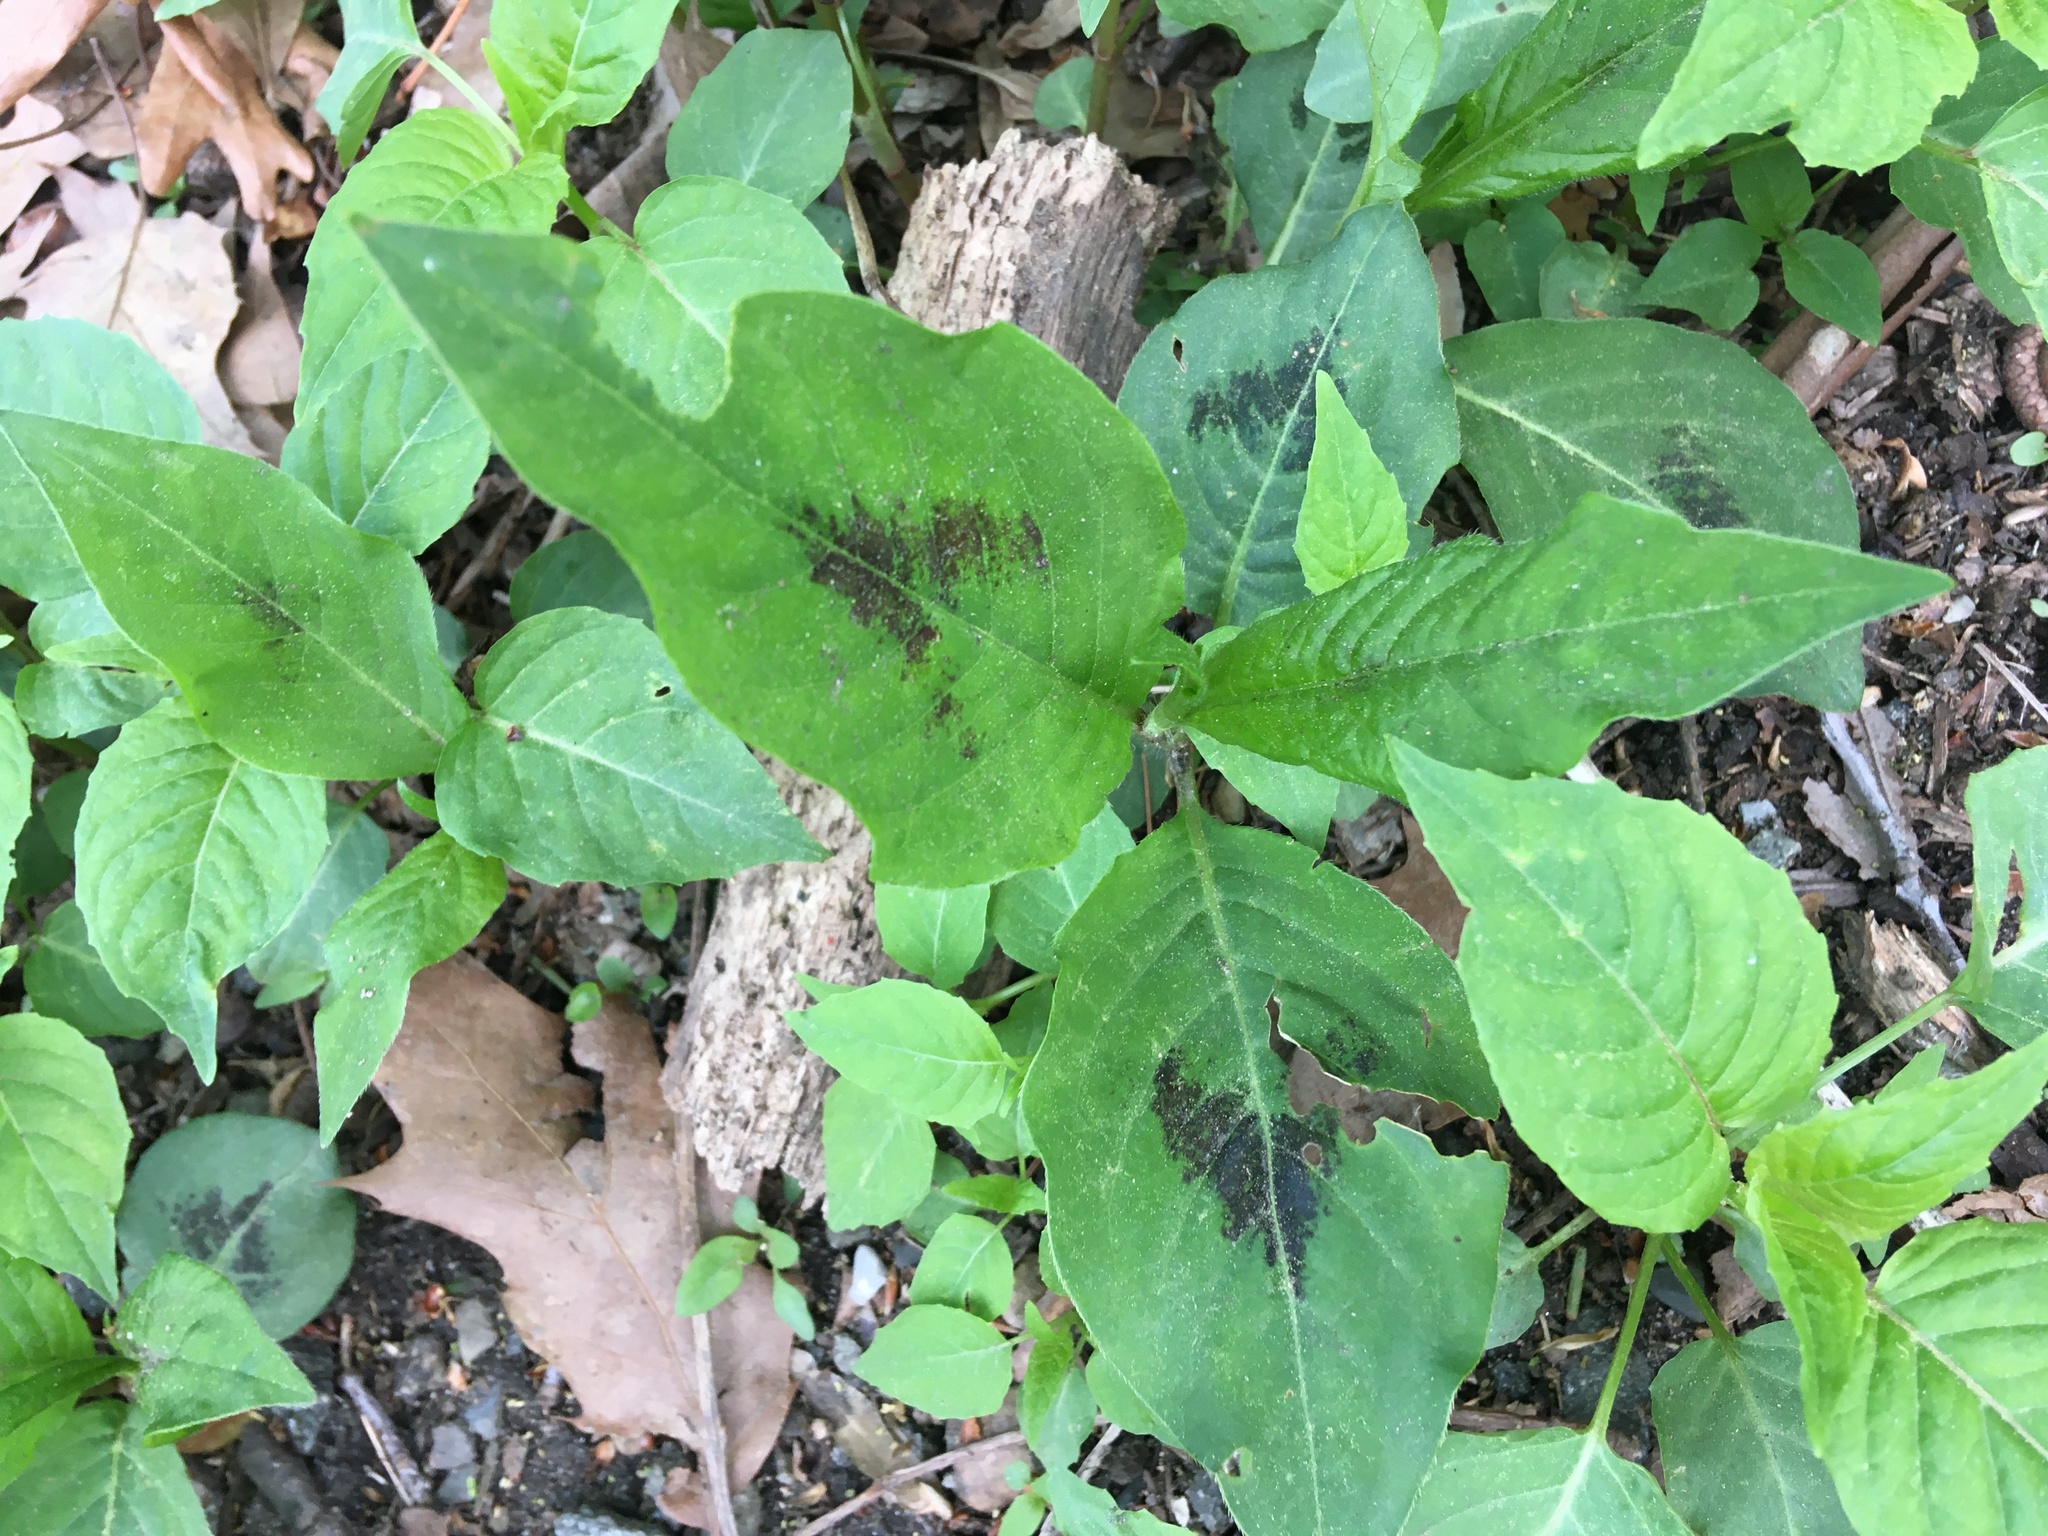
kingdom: Plantae
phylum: Tracheophyta
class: Magnoliopsida
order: Caryophyllales
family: Polygonaceae
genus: Persicaria
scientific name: Persicaria virginiana
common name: Jumpseed
